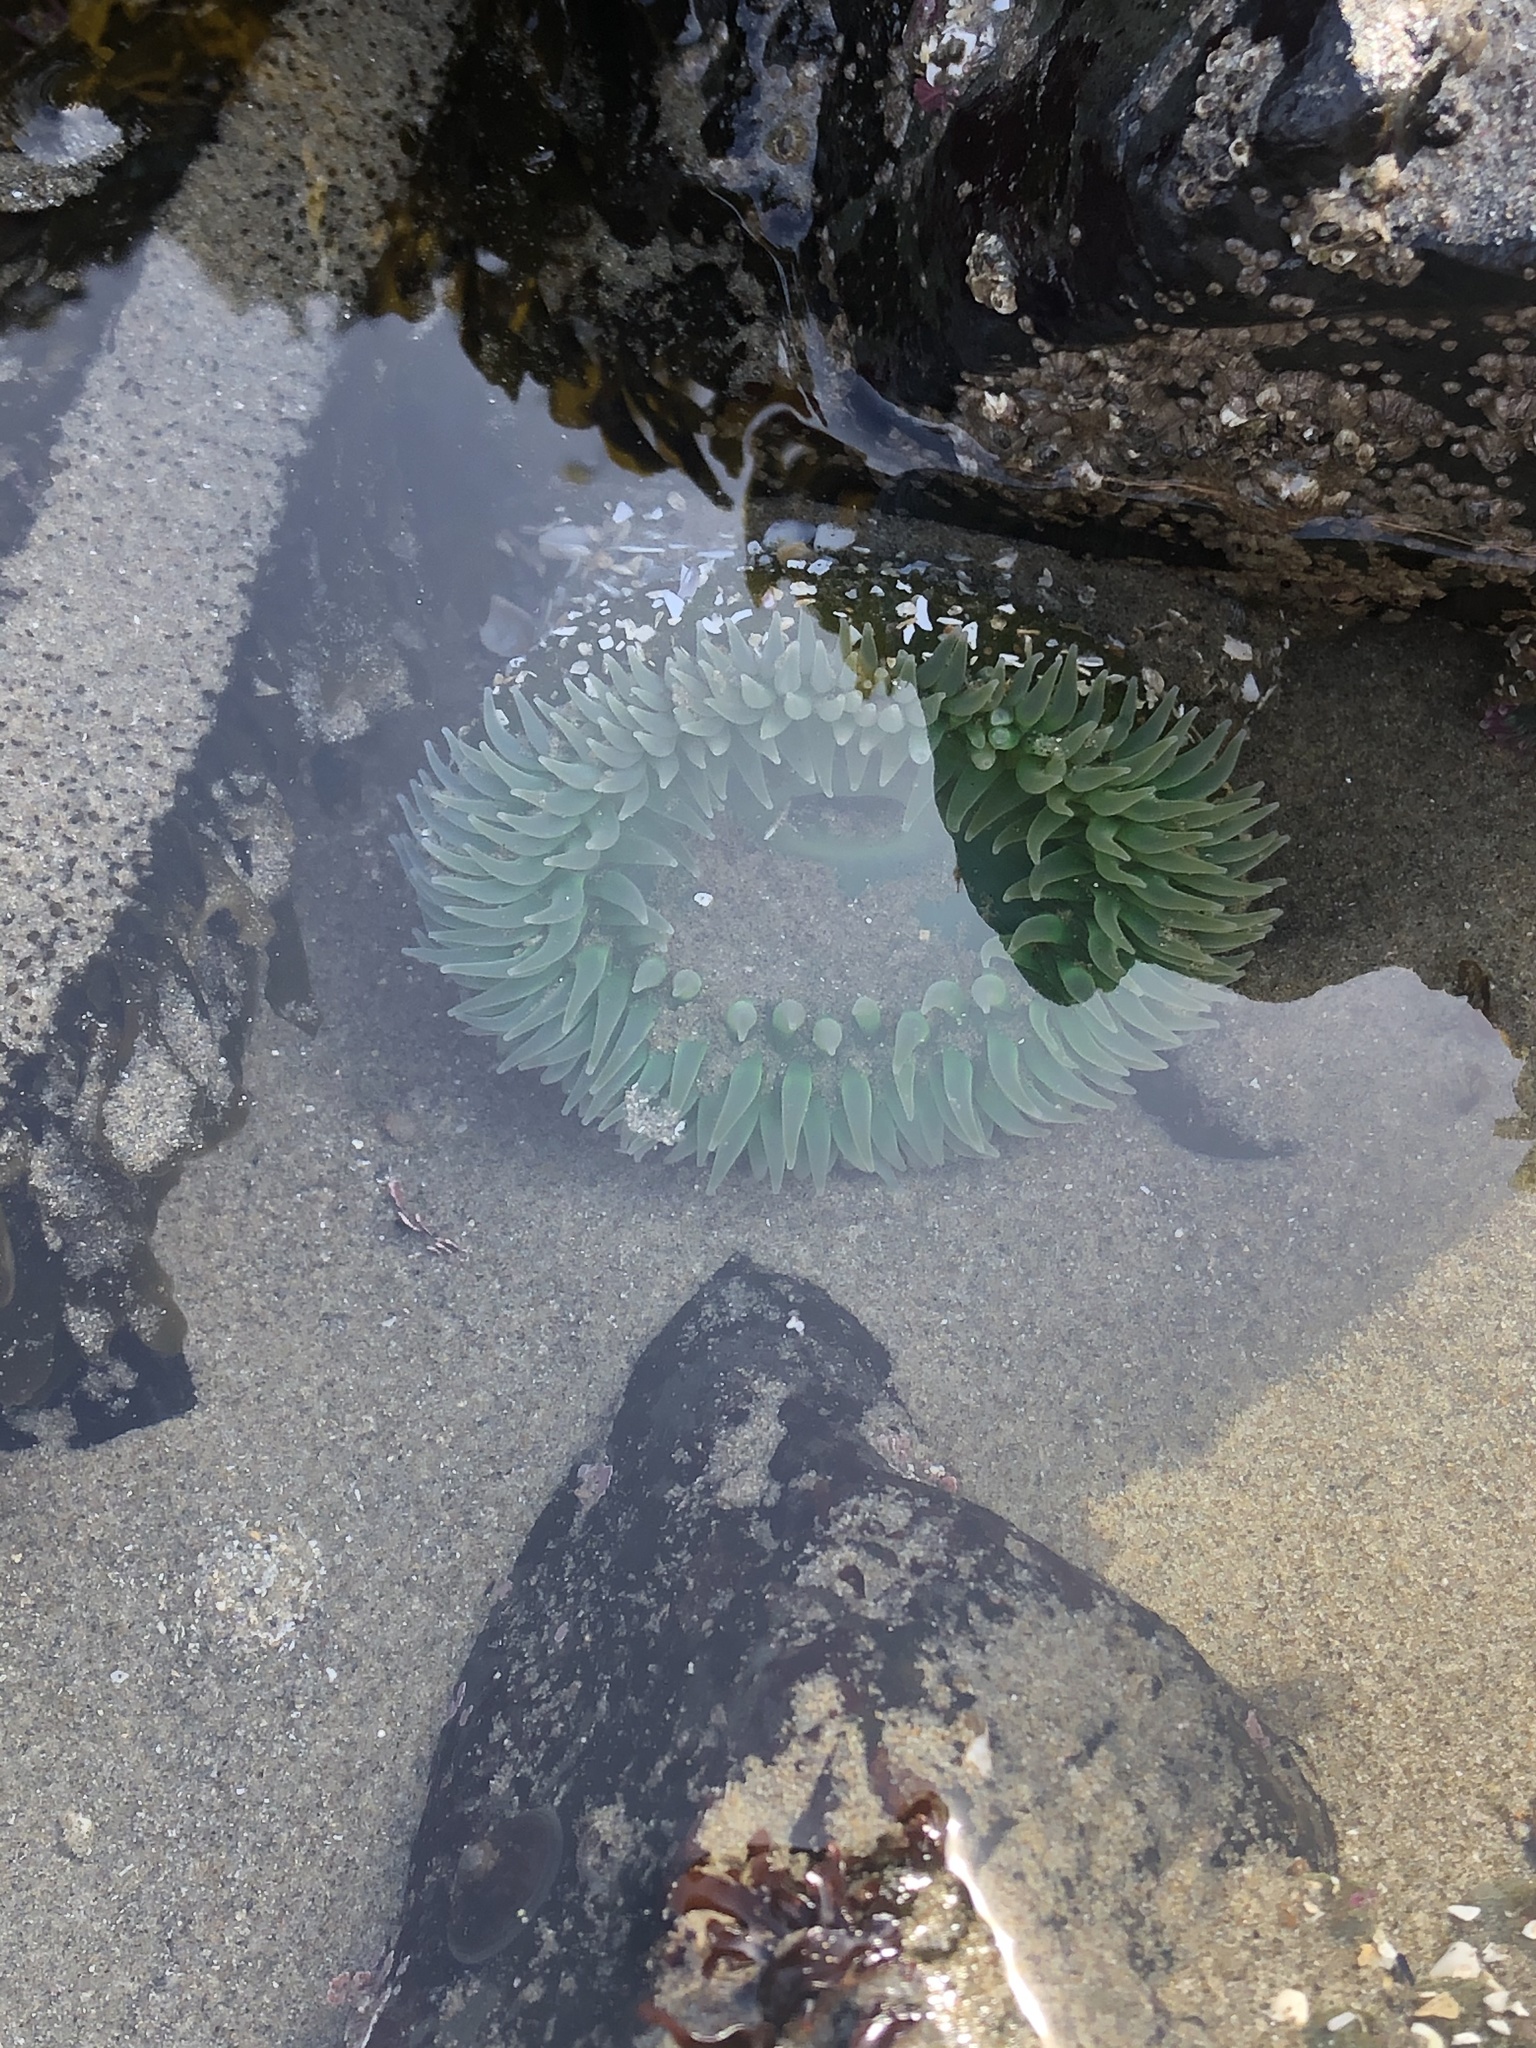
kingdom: Animalia
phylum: Cnidaria
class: Anthozoa
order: Actiniaria
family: Actiniidae
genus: Anthopleura
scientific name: Anthopleura xanthogrammica
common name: Giant green anemone
